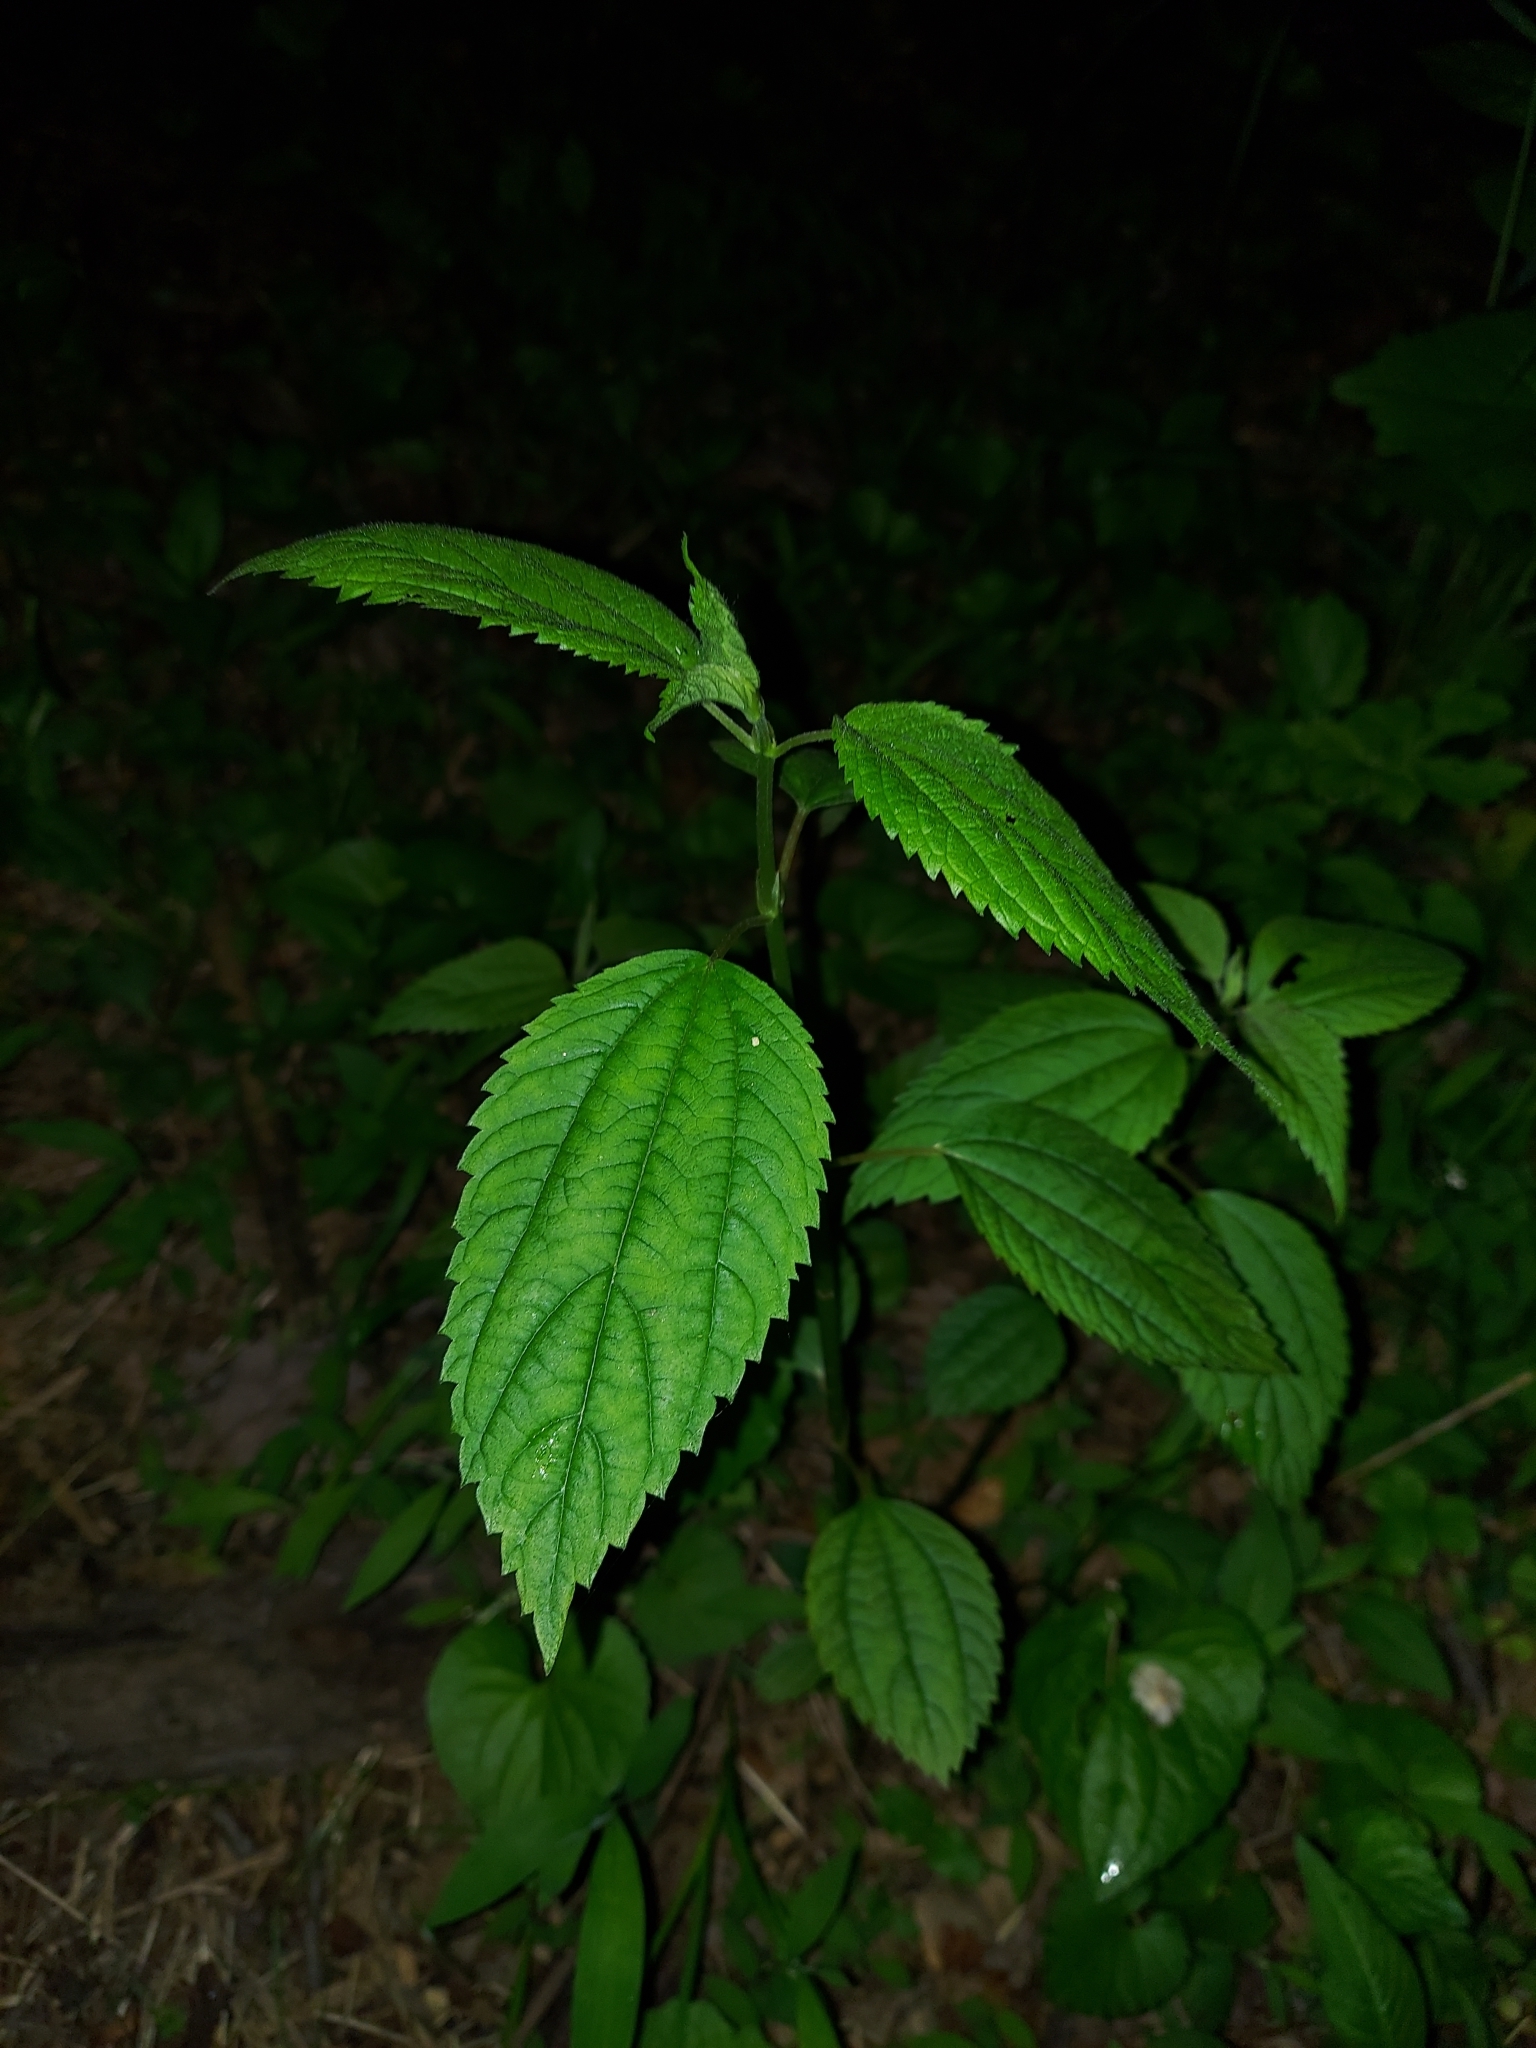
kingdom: Plantae
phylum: Tracheophyta
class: Magnoliopsida
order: Rosales
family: Urticaceae
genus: Boehmeria
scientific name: Boehmeria cylindrica
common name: Bog-hemp
